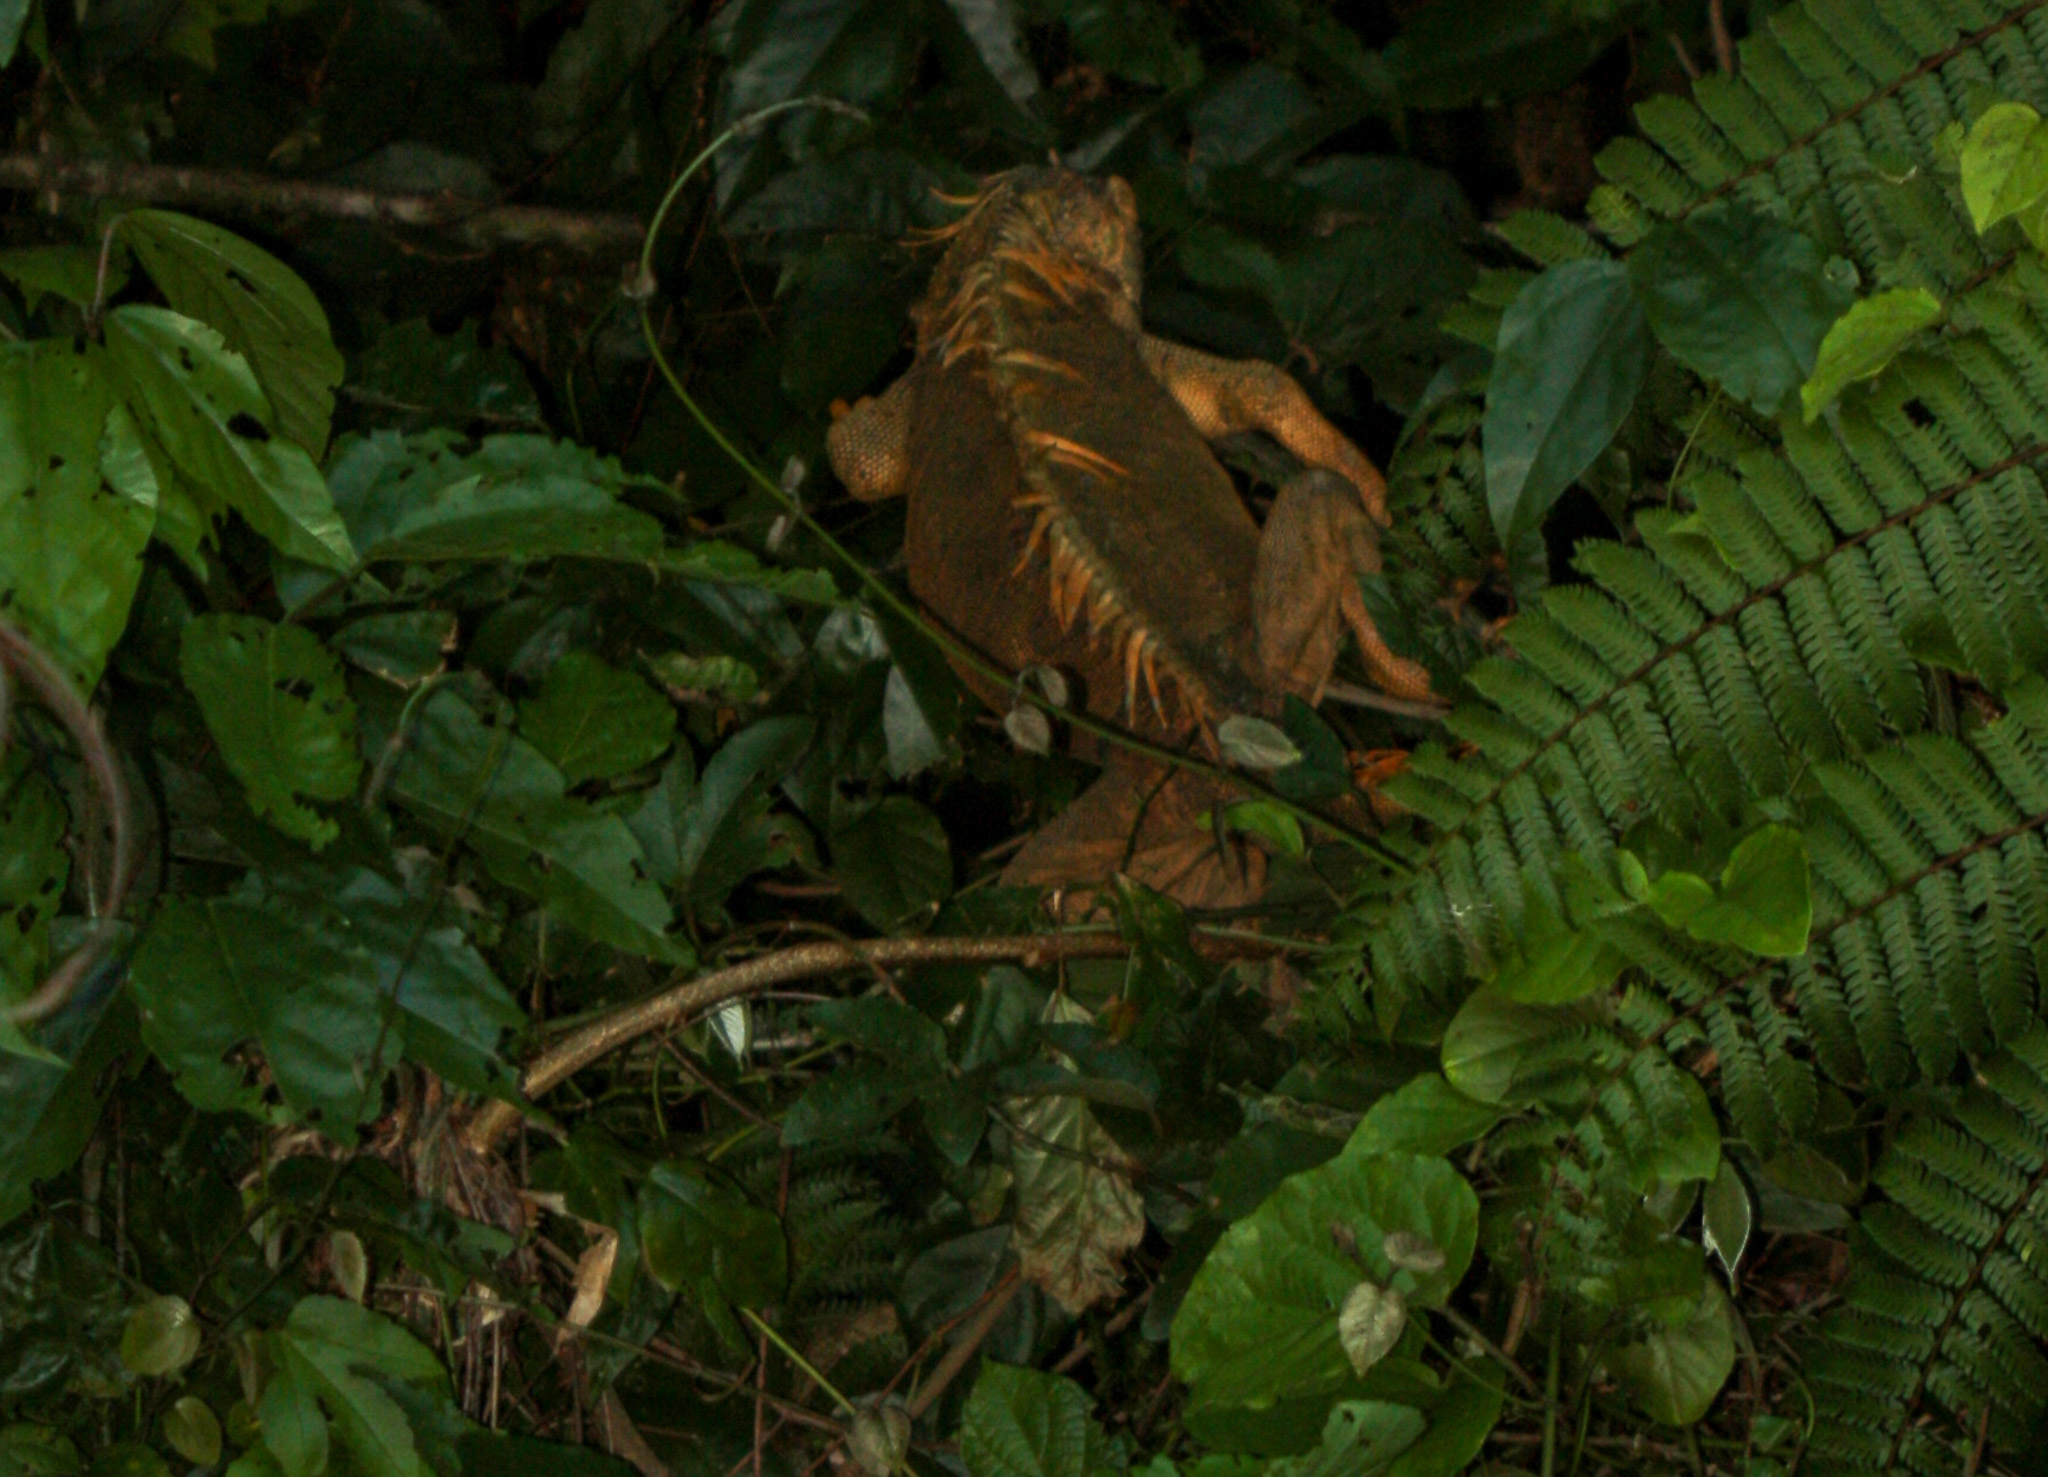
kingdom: Animalia
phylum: Chordata
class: Squamata
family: Iguanidae
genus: Iguana
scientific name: Iguana iguana
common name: Green iguana
